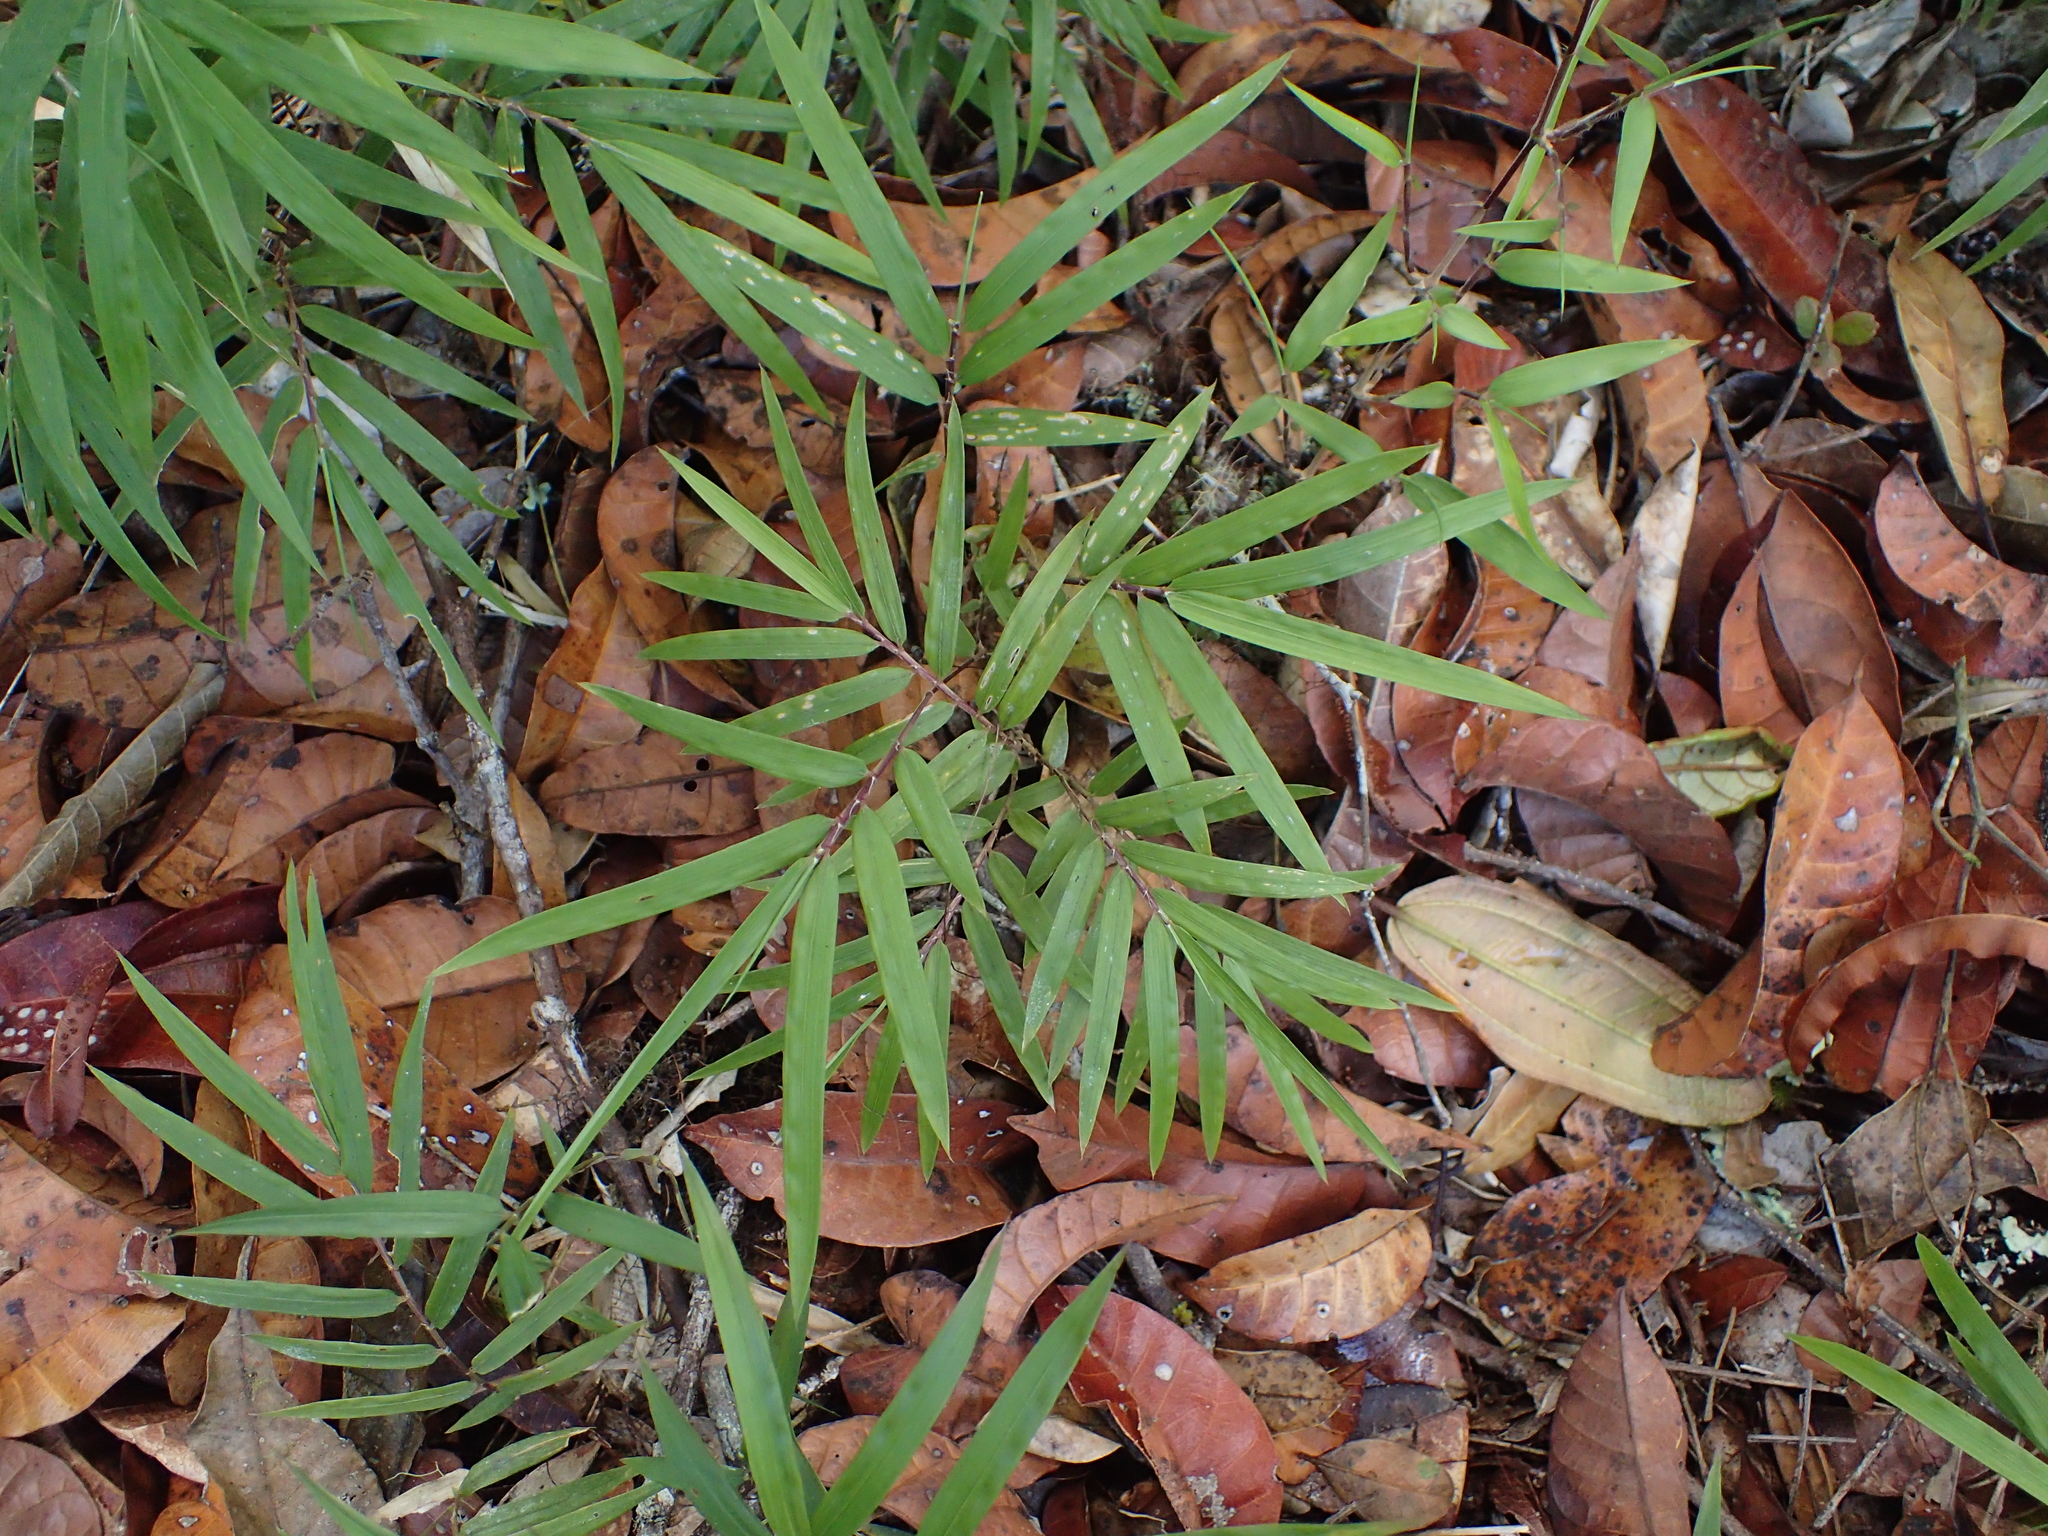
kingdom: Plantae
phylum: Tracheophyta
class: Liliopsida
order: Poales
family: Poaceae
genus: Nastus
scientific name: Nastus perrieri
